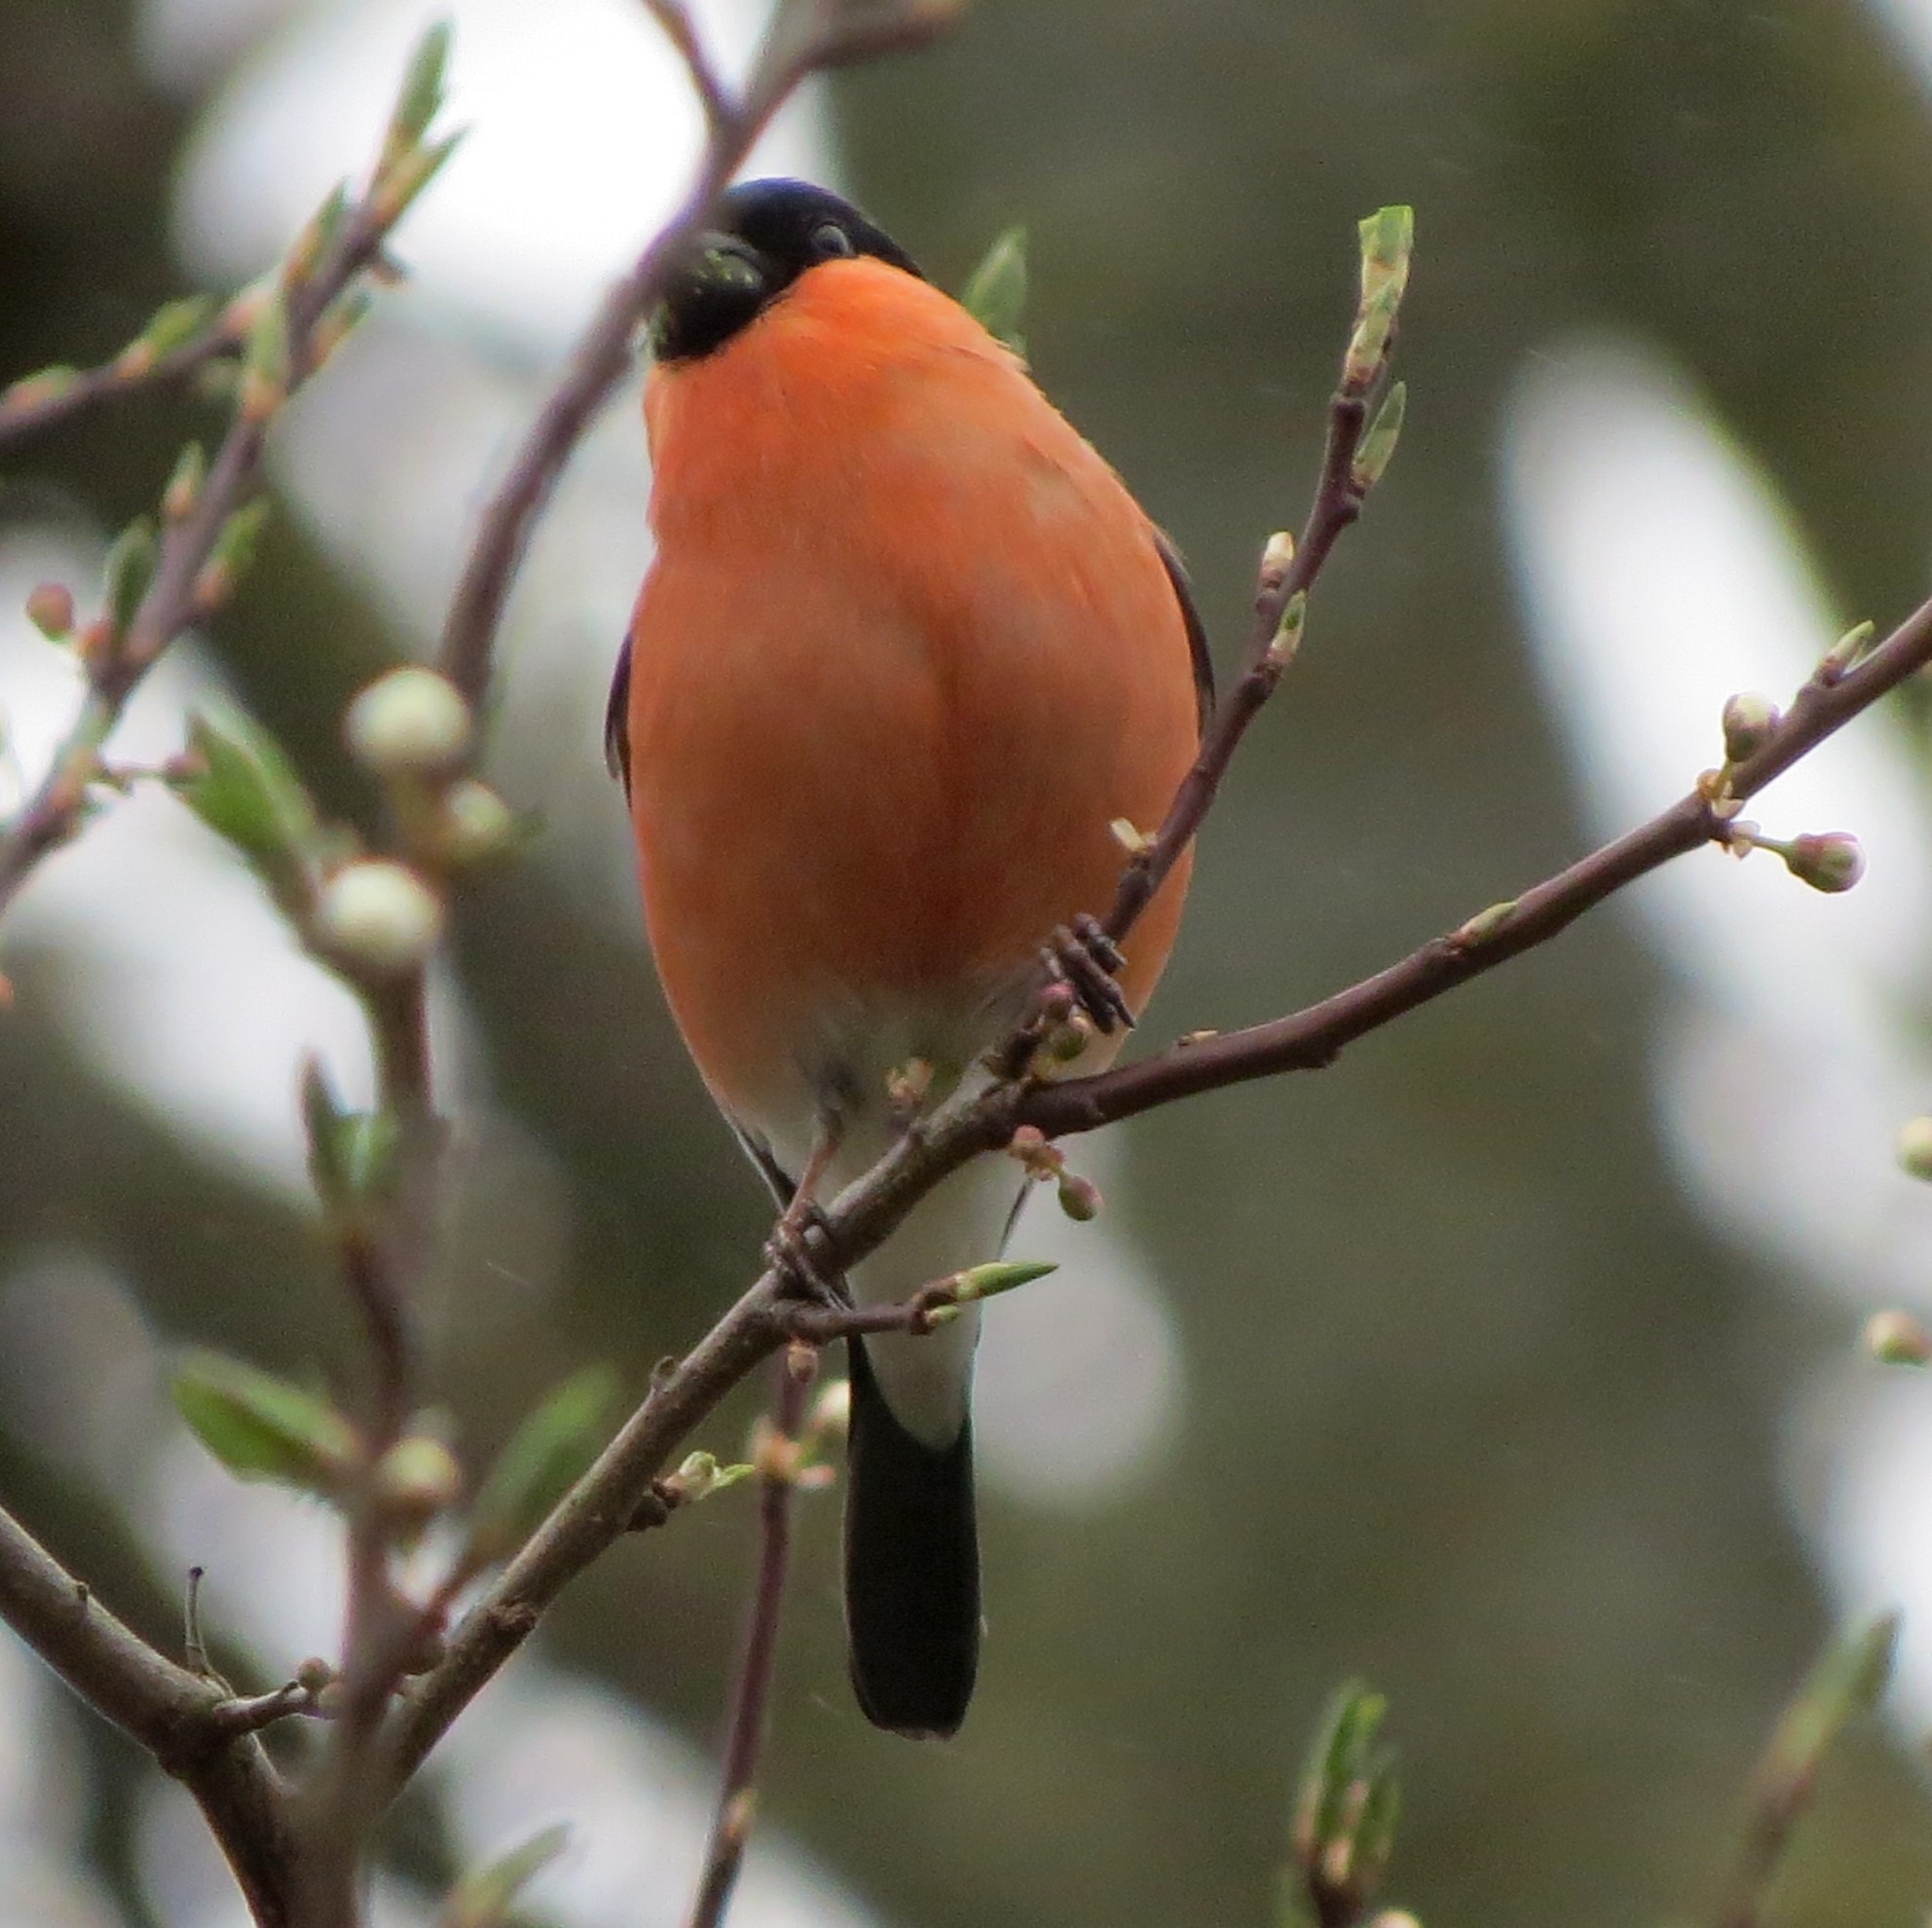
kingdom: Animalia
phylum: Chordata
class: Aves
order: Passeriformes
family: Fringillidae
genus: Pyrrhula
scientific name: Pyrrhula pyrrhula
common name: Eurasian bullfinch
